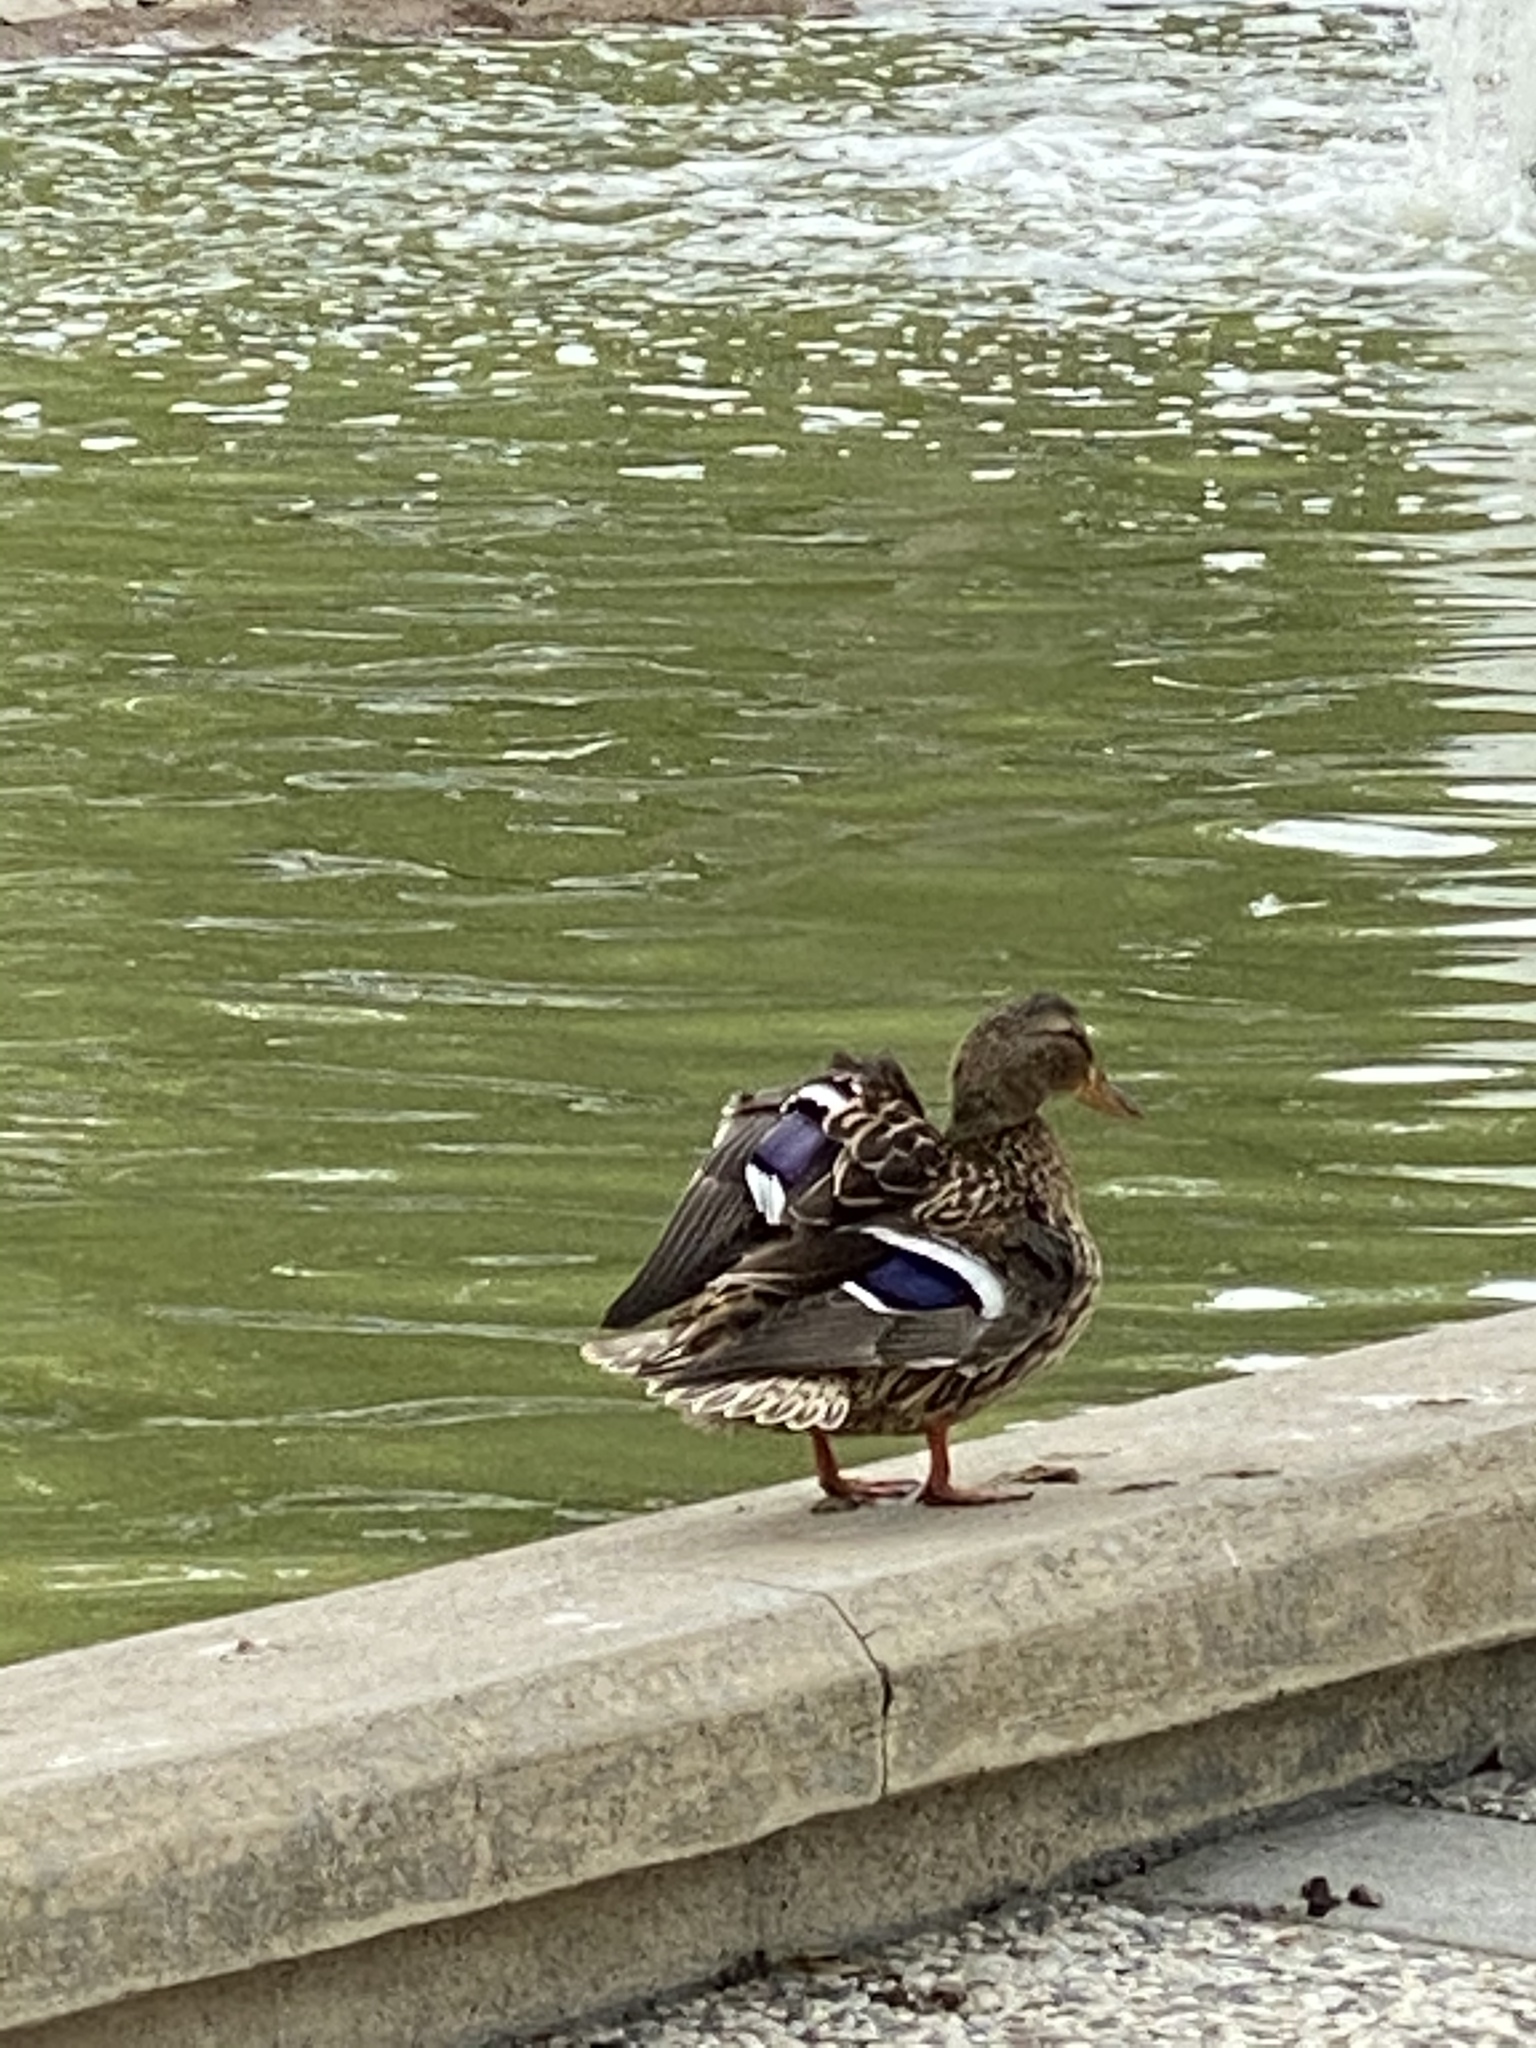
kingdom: Animalia
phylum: Chordata
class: Aves
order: Anseriformes
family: Anatidae
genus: Anas
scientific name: Anas platyrhynchos
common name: Mallard
